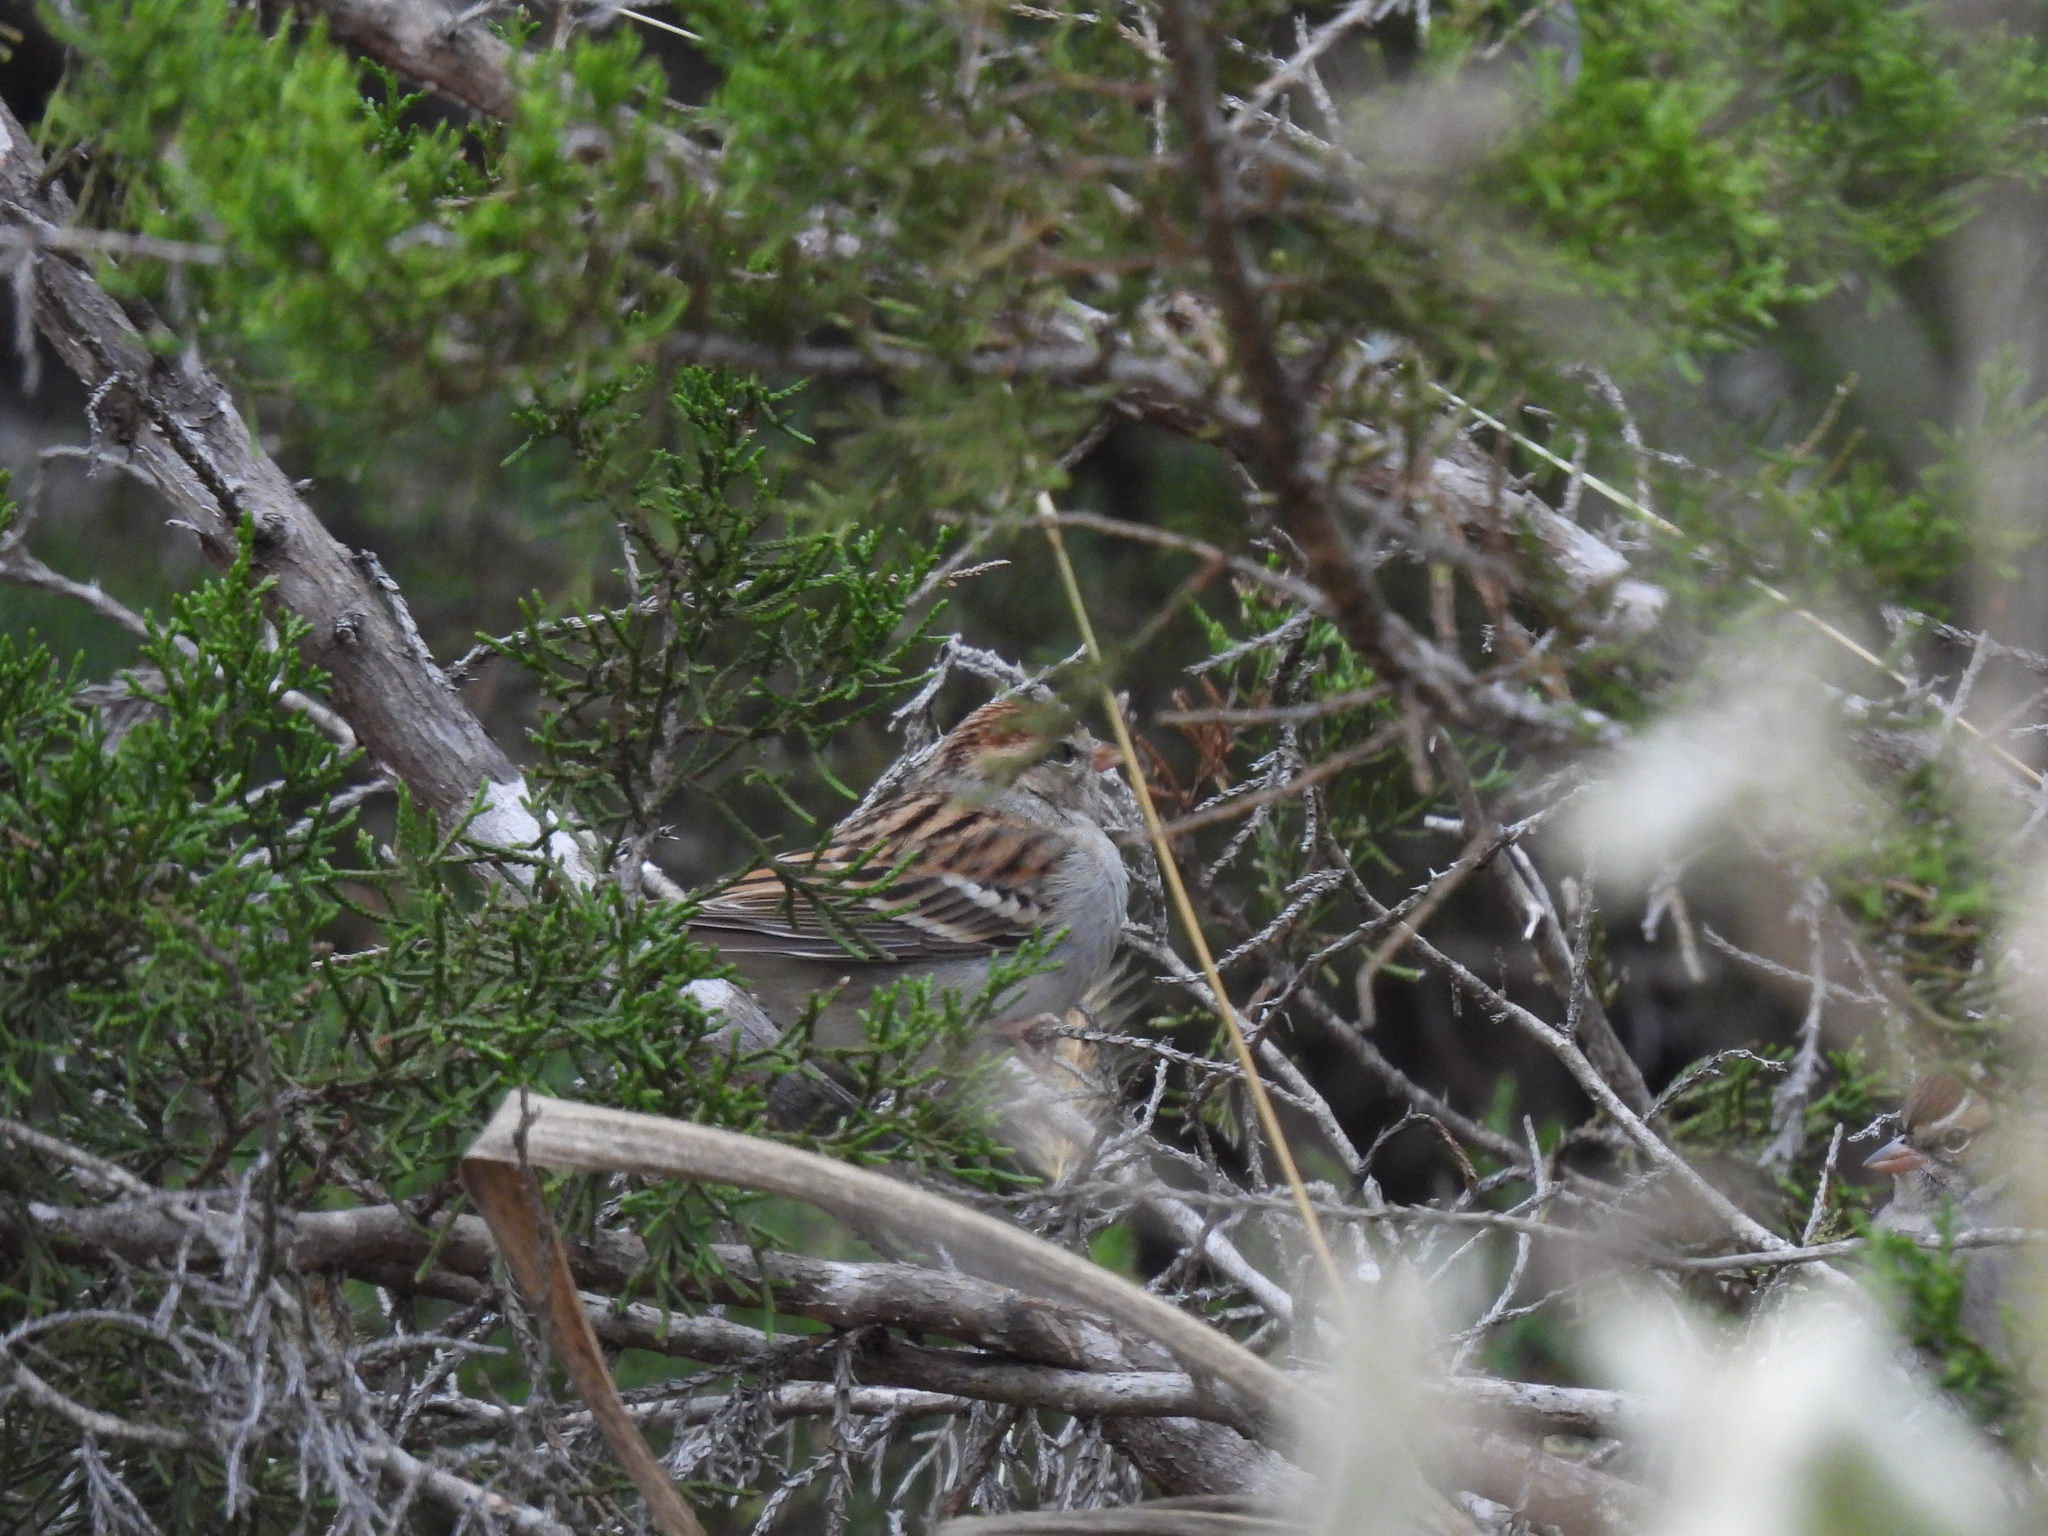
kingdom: Animalia
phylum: Chordata
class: Aves
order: Passeriformes
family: Passerellidae
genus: Spizella
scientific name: Spizella passerina
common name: Chipping sparrow
